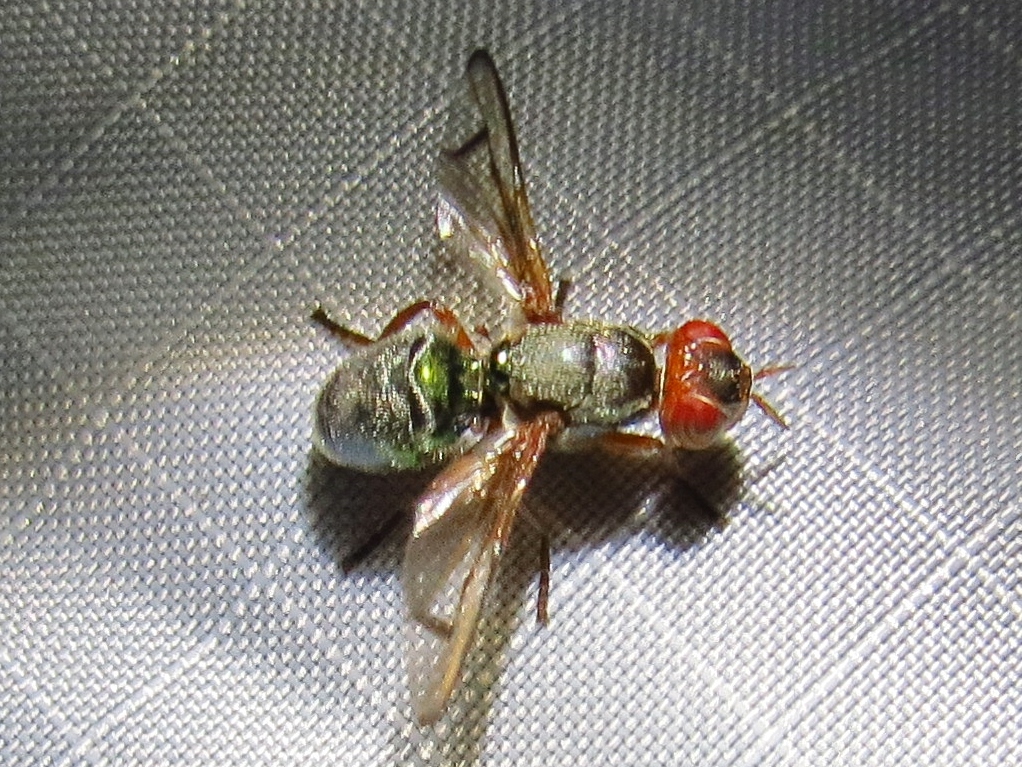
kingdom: Animalia
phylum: Arthropoda
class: Insecta
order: Diptera
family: Platystomatidae
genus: Senopterina
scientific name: Senopterina caerulescens
